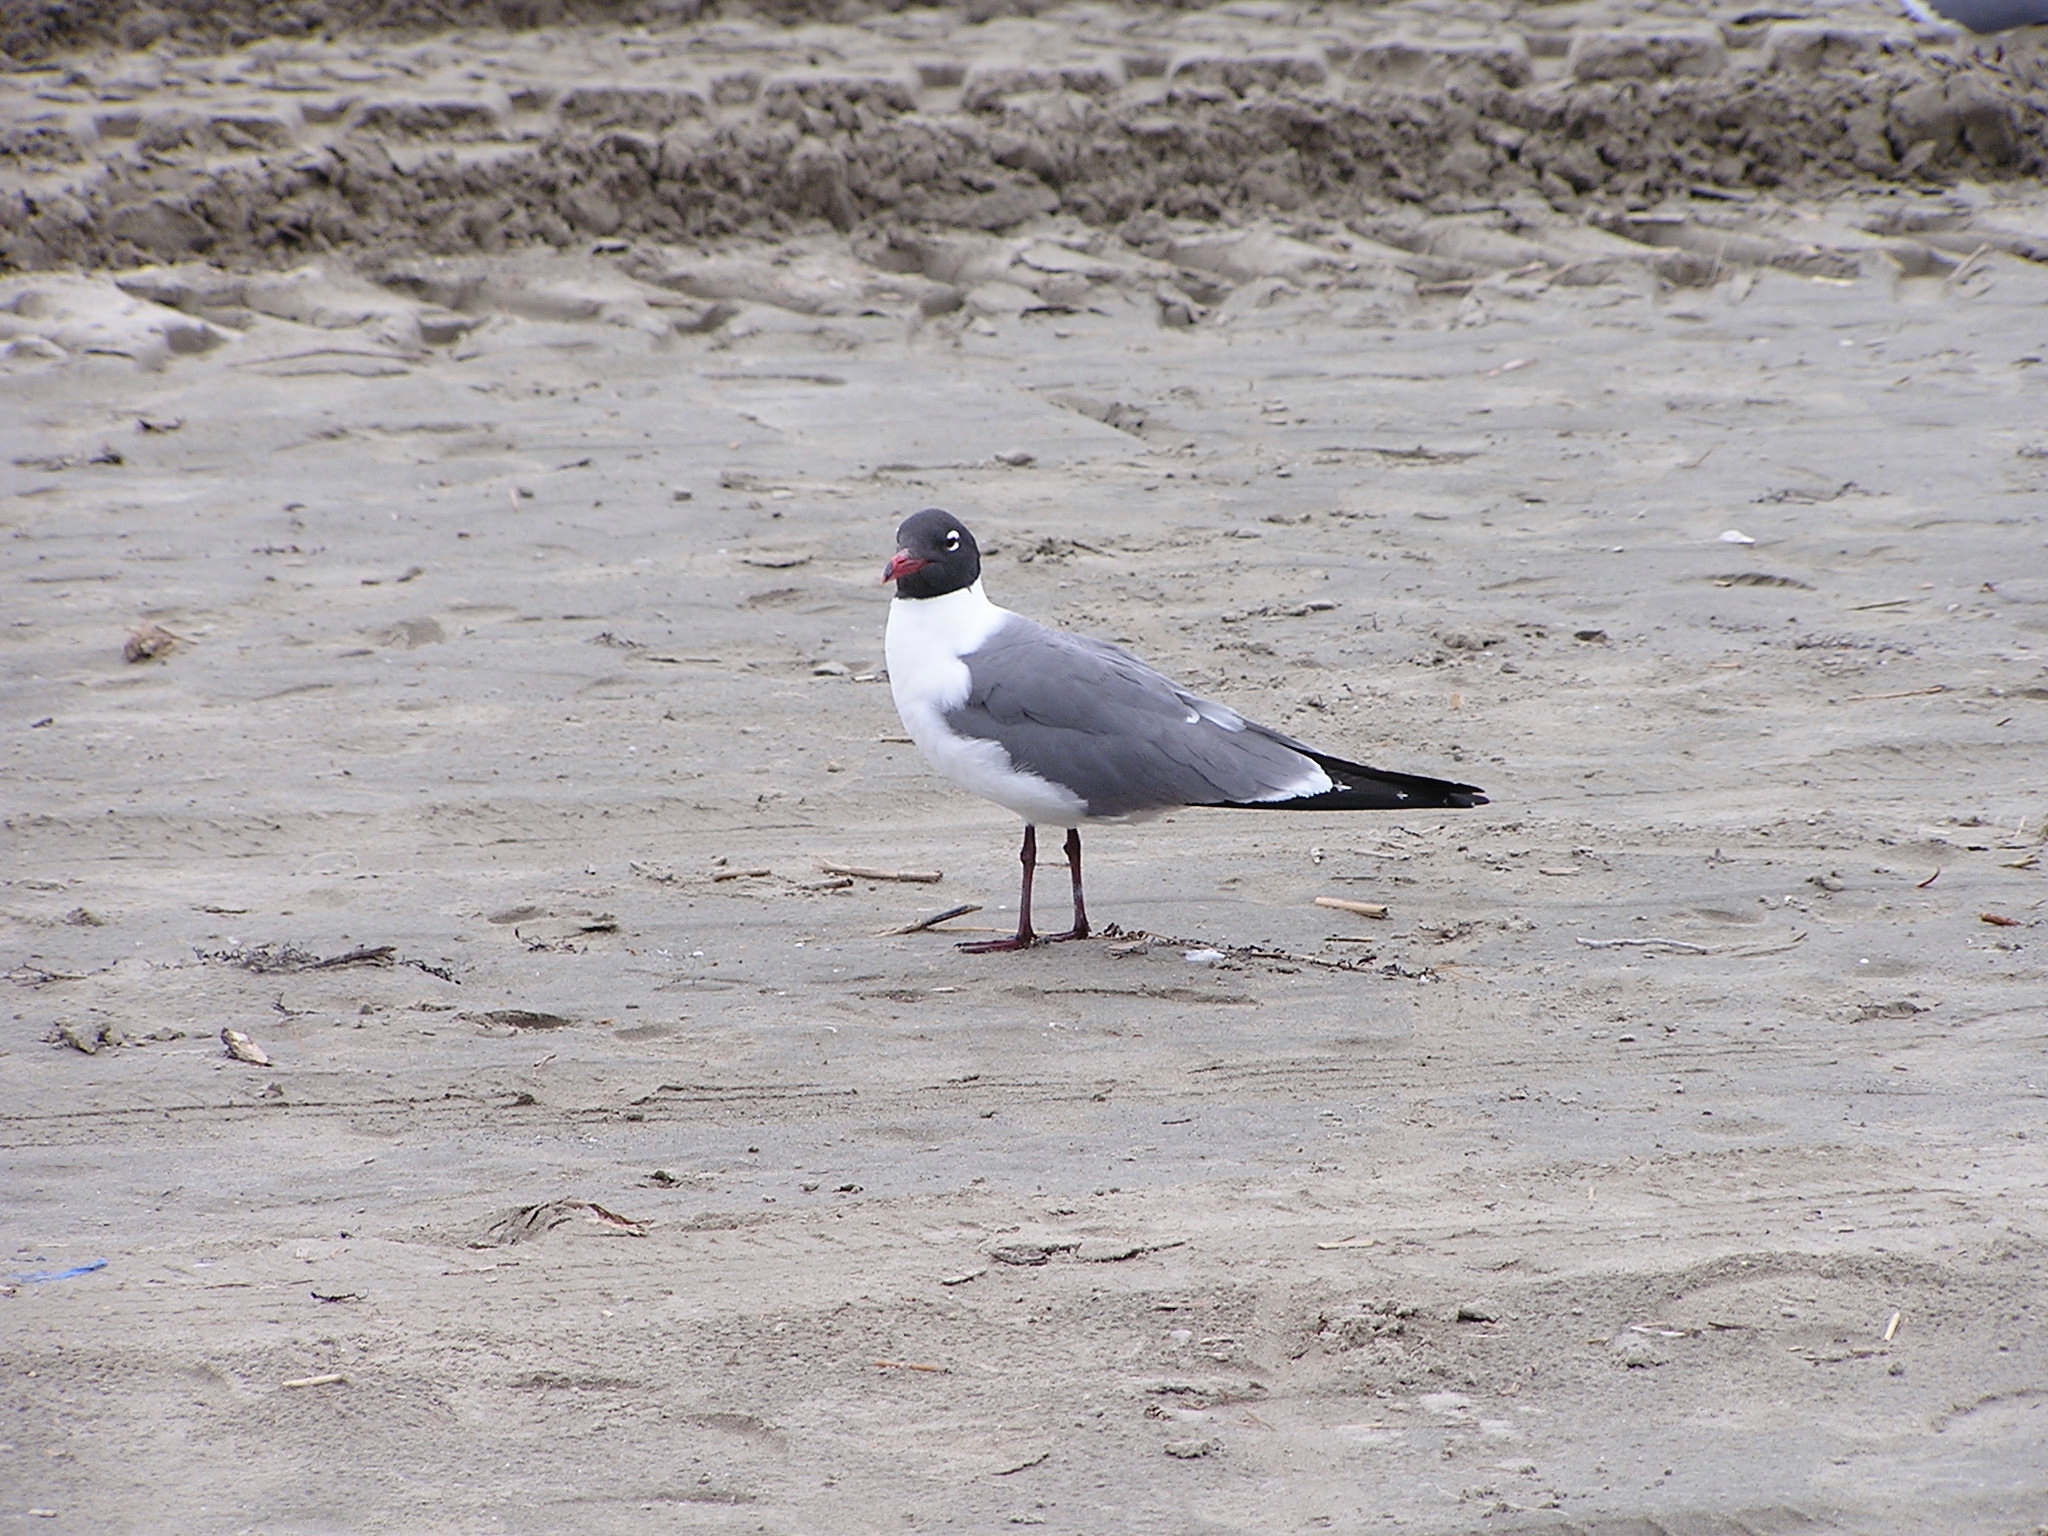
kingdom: Animalia
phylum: Chordata
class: Aves
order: Charadriiformes
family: Laridae
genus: Leucophaeus
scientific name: Leucophaeus atricilla
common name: Laughing gull
